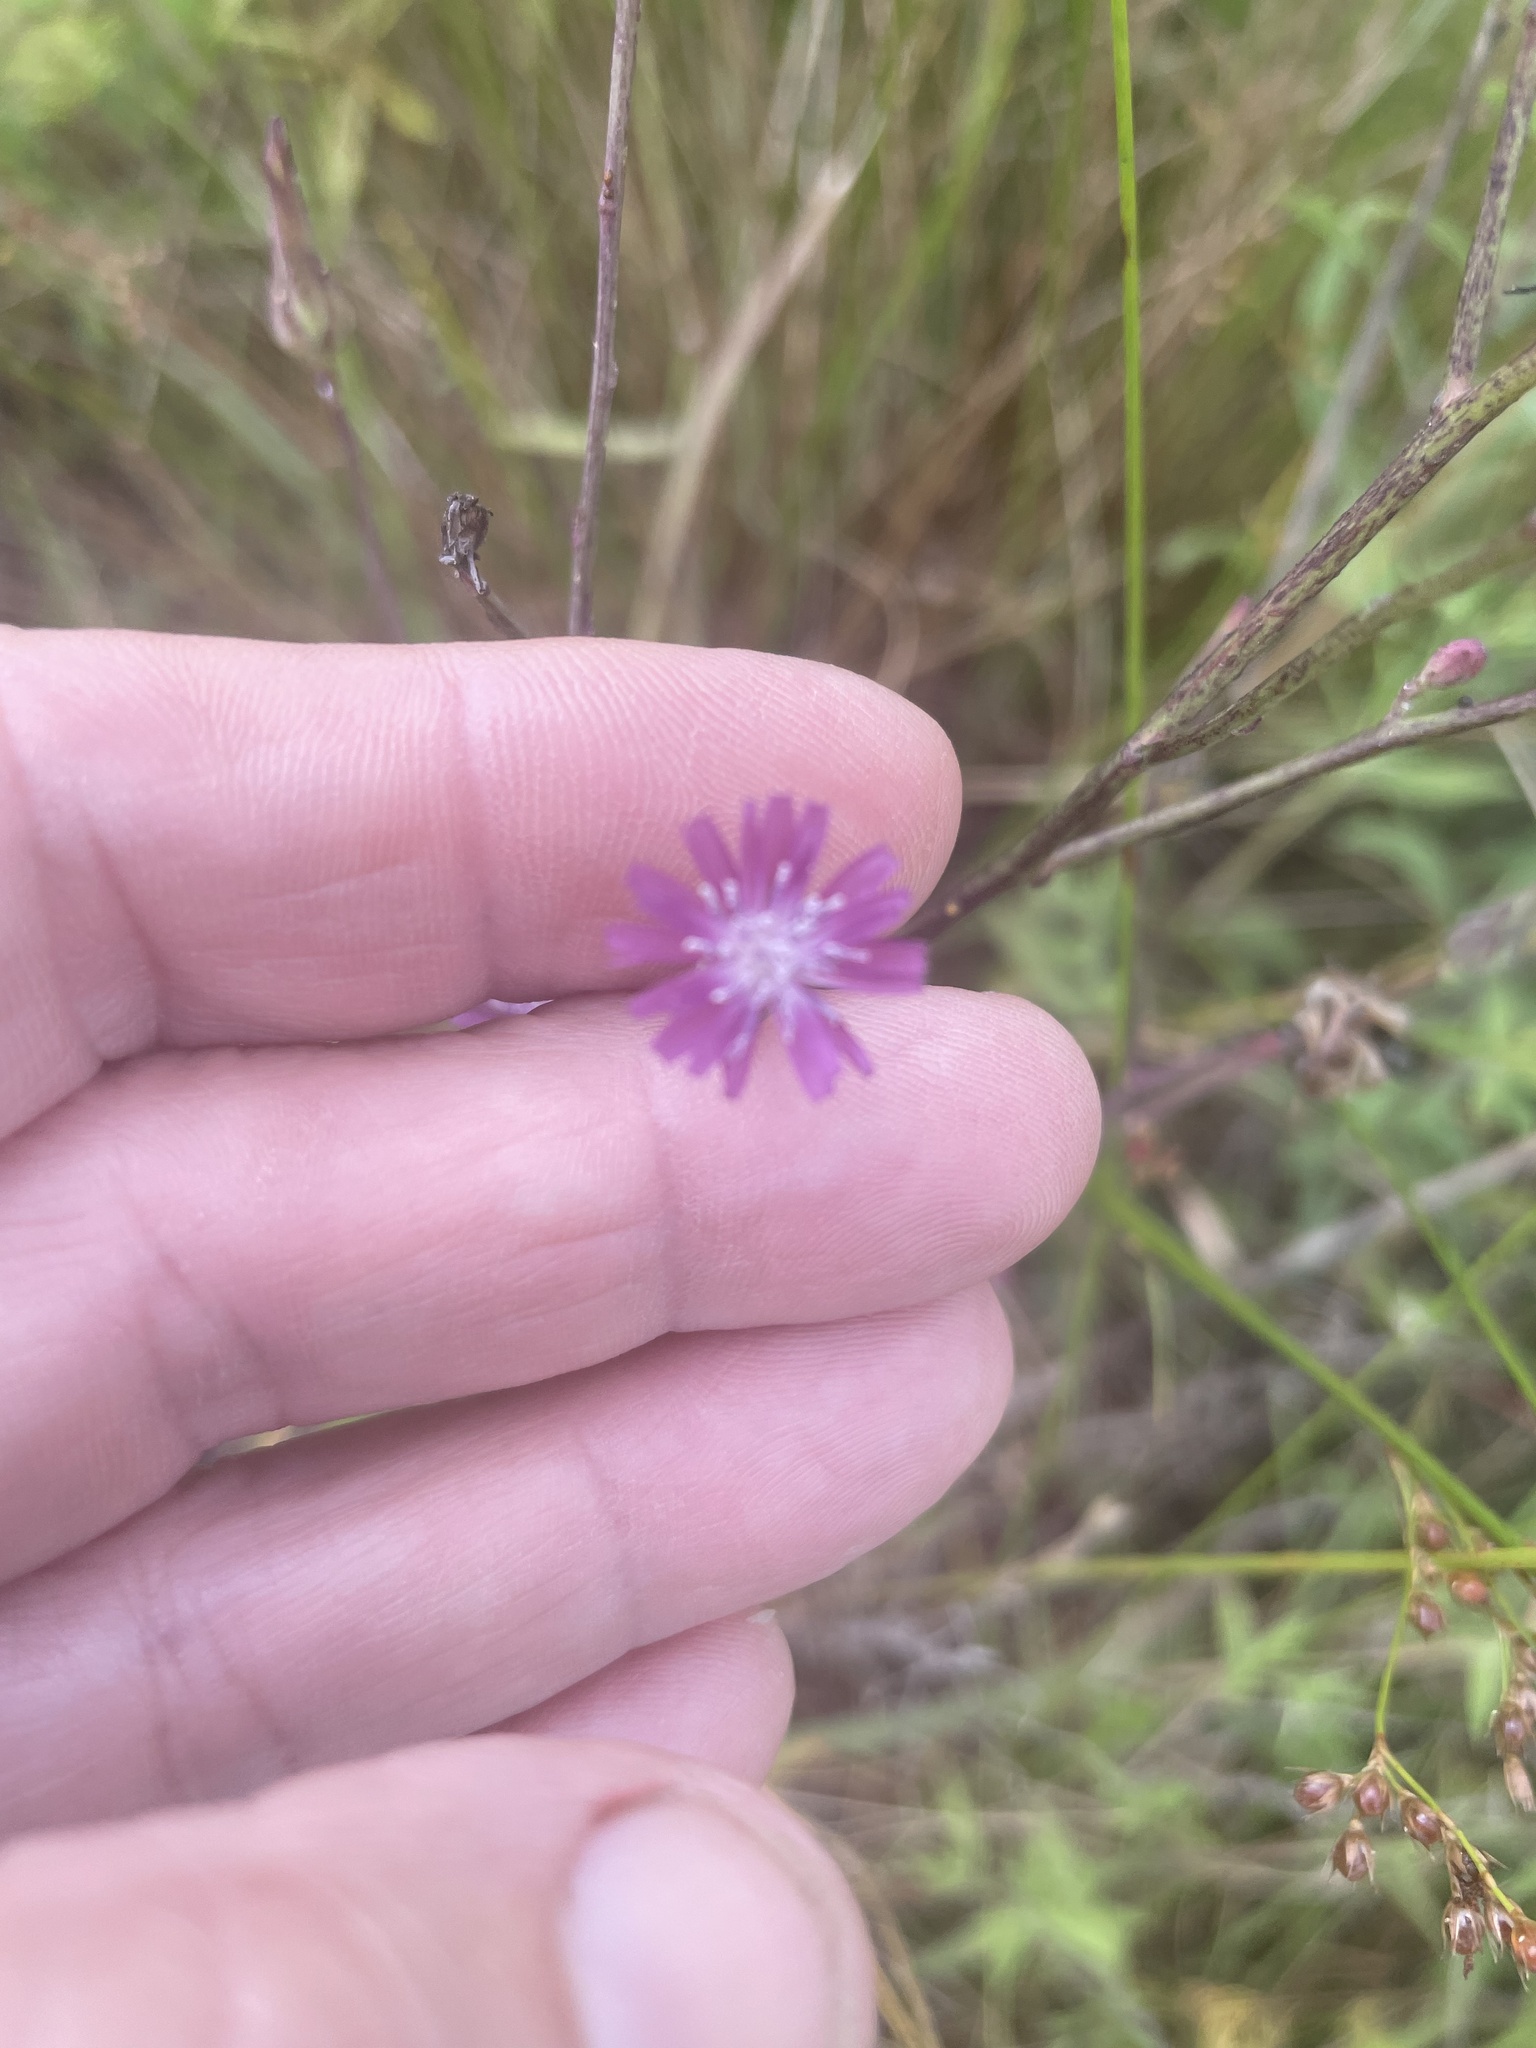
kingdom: Plantae
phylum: Tracheophyta
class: Magnoliopsida
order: Asterales
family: Asteraceae
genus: Lactuca
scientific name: Lactuca graminifolia
